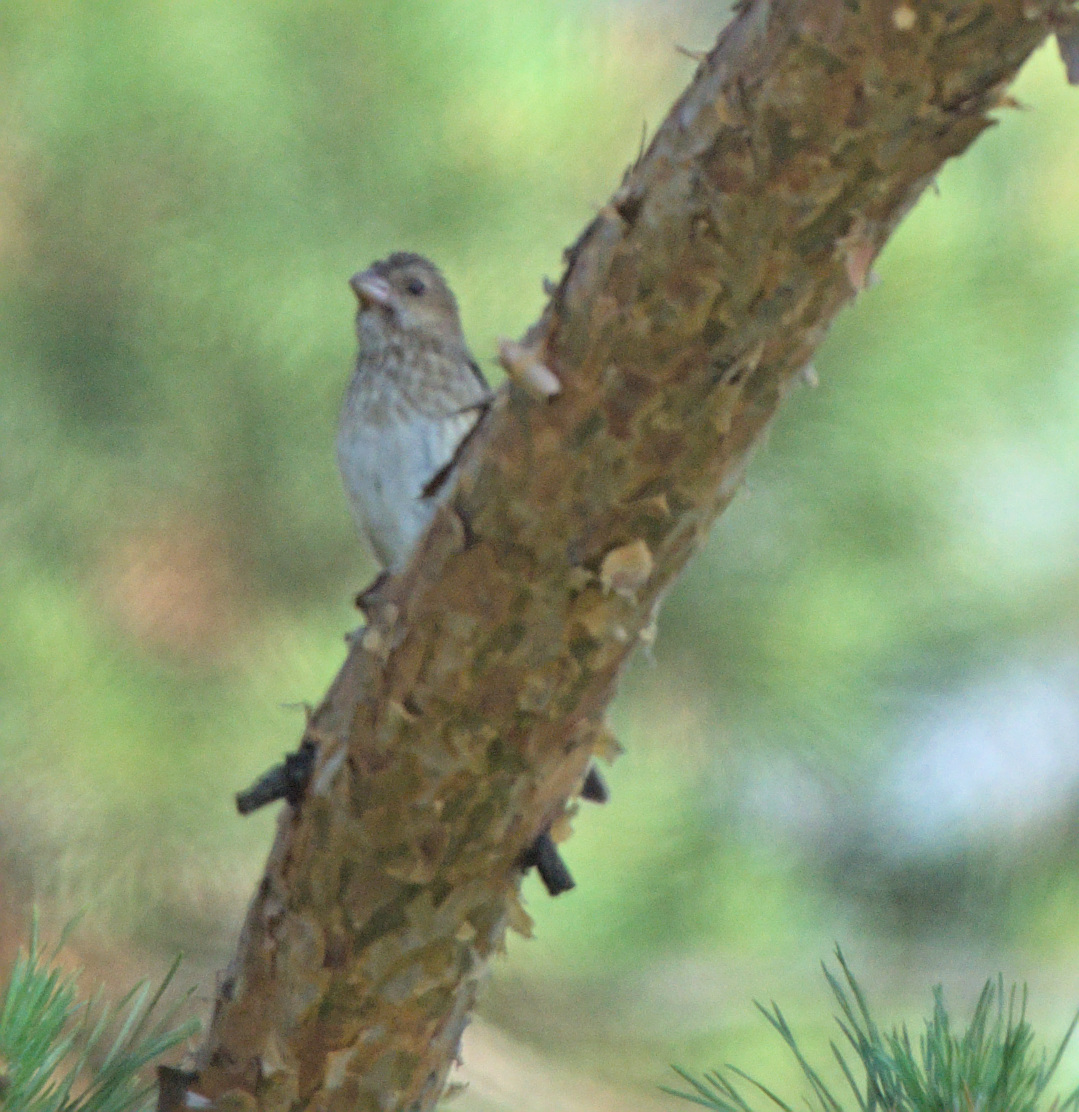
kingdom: Animalia
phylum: Chordata
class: Aves
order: Passeriformes
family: Fringillidae
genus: Carpodacus
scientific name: Carpodacus erythrinus
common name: Common rosefinch
